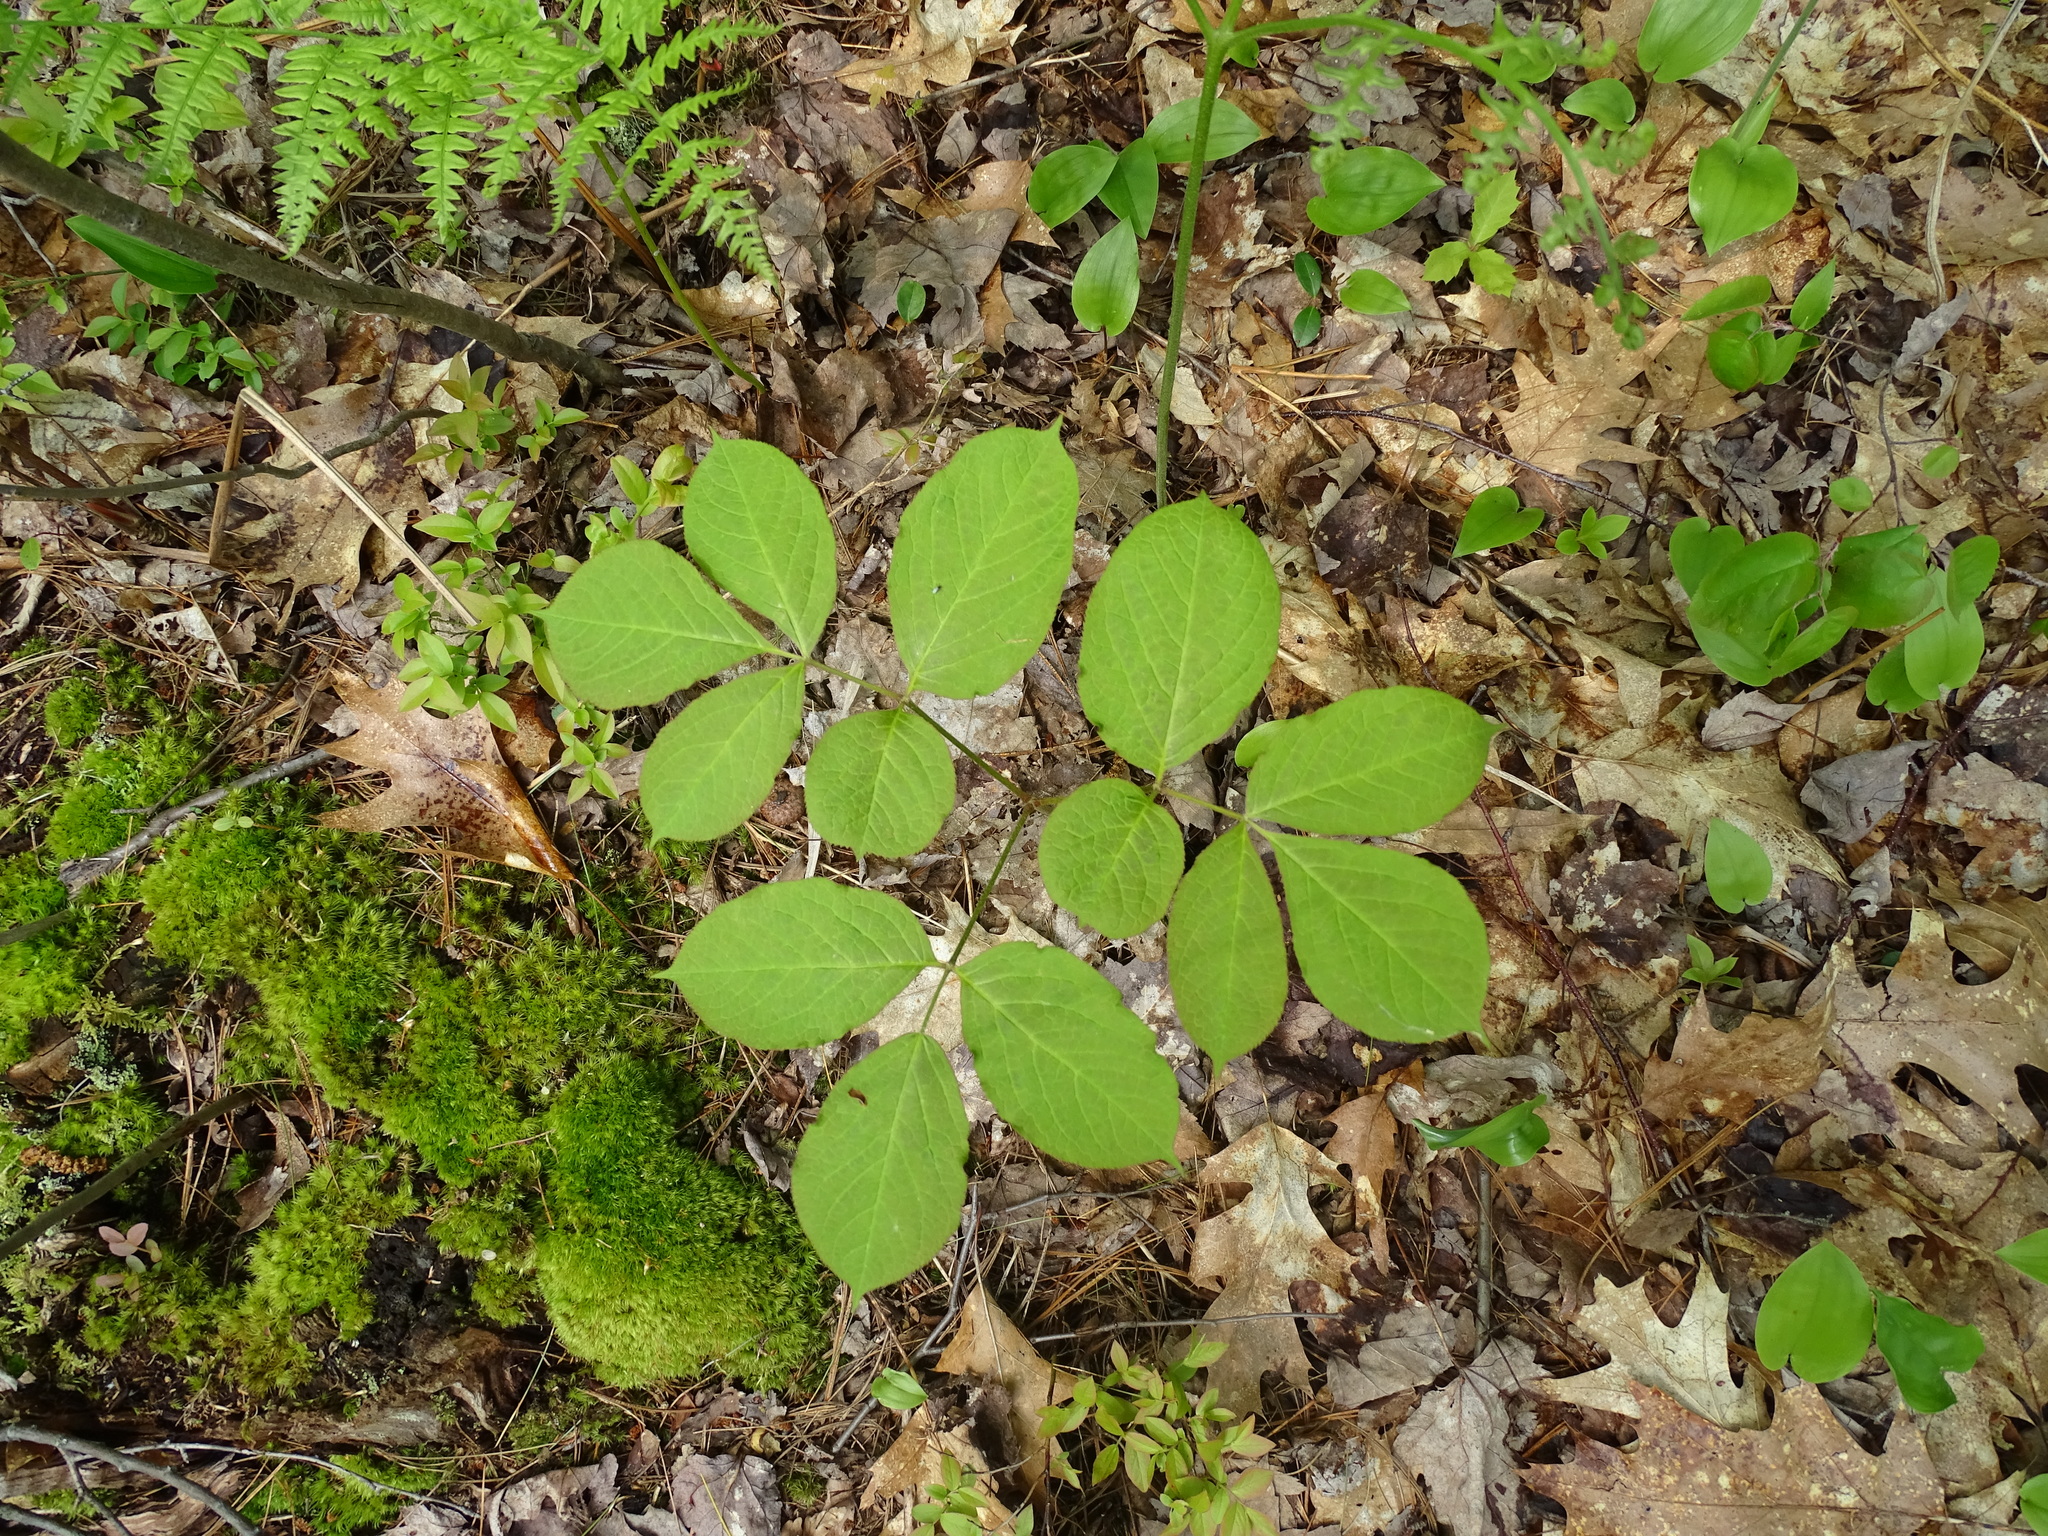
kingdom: Plantae
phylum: Tracheophyta
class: Magnoliopsida
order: Apiales
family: Araliaceae
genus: Aralia
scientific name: Aralia nudicaulis
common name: Wild sarsaparilla
